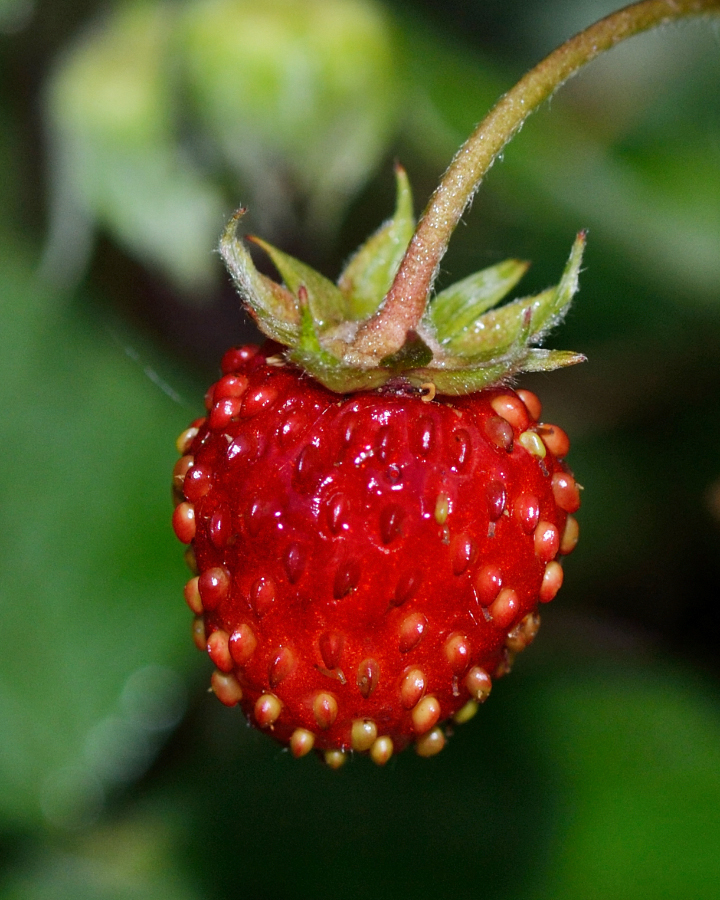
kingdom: Plantae
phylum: Tracheophyta
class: Magnoliopsida
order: Rosales
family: Rosaceae
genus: Fragaria
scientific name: Fragaria vesca
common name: Wild strawberry
